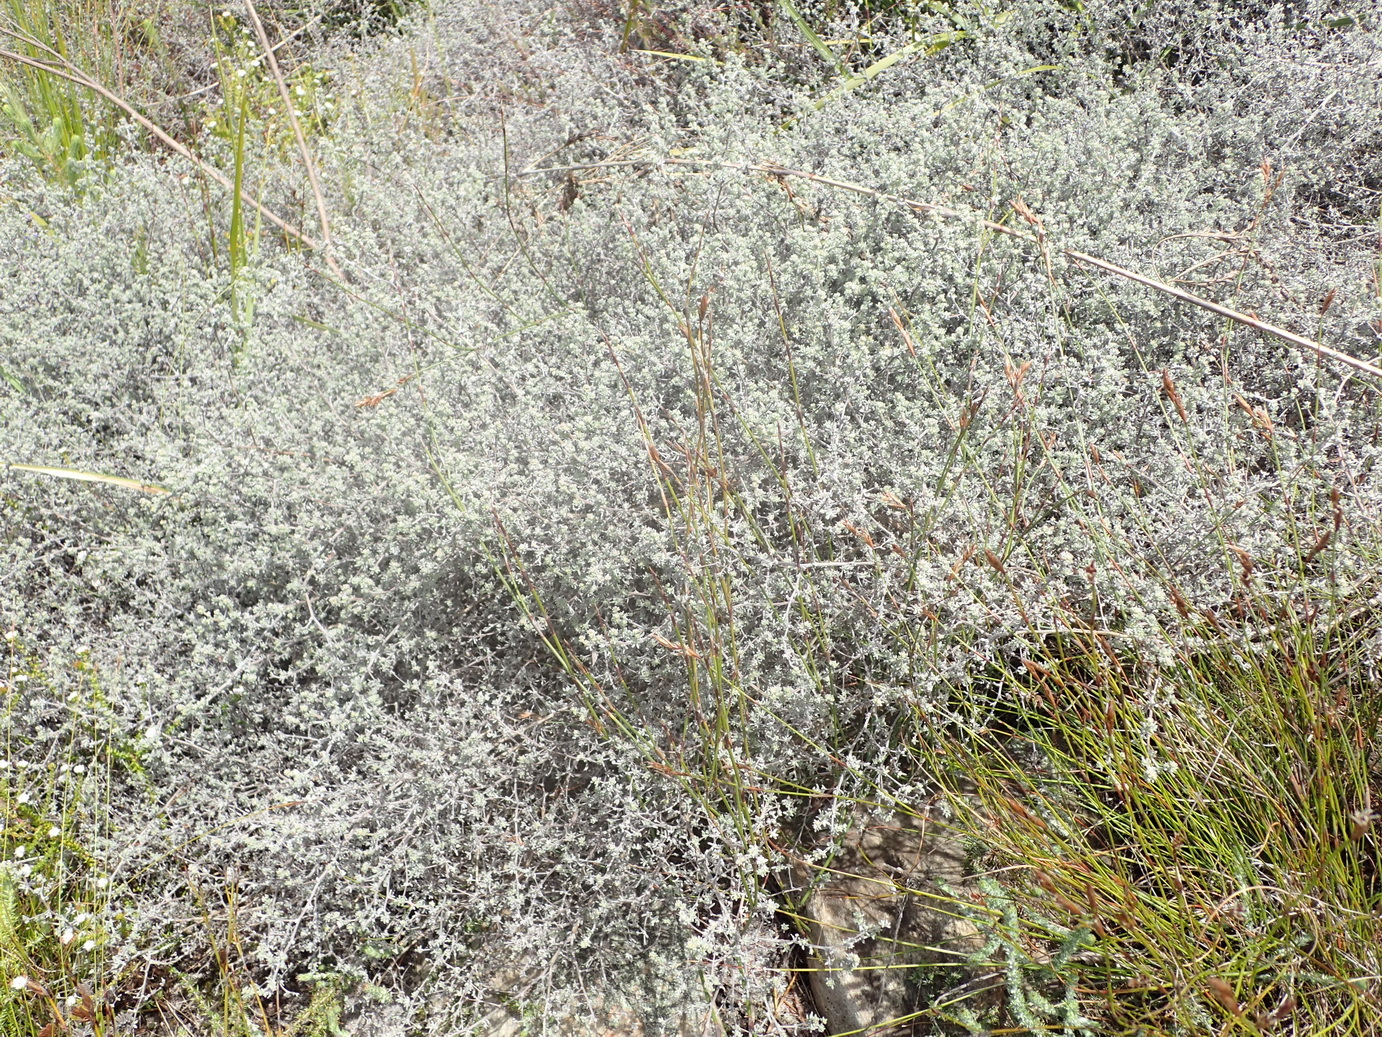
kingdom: Plantae
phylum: Tracheophyta
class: Magnoliopsida
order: Fabales
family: Fabaceae
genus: Aspalathus
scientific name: Aspalathus digitifolia
